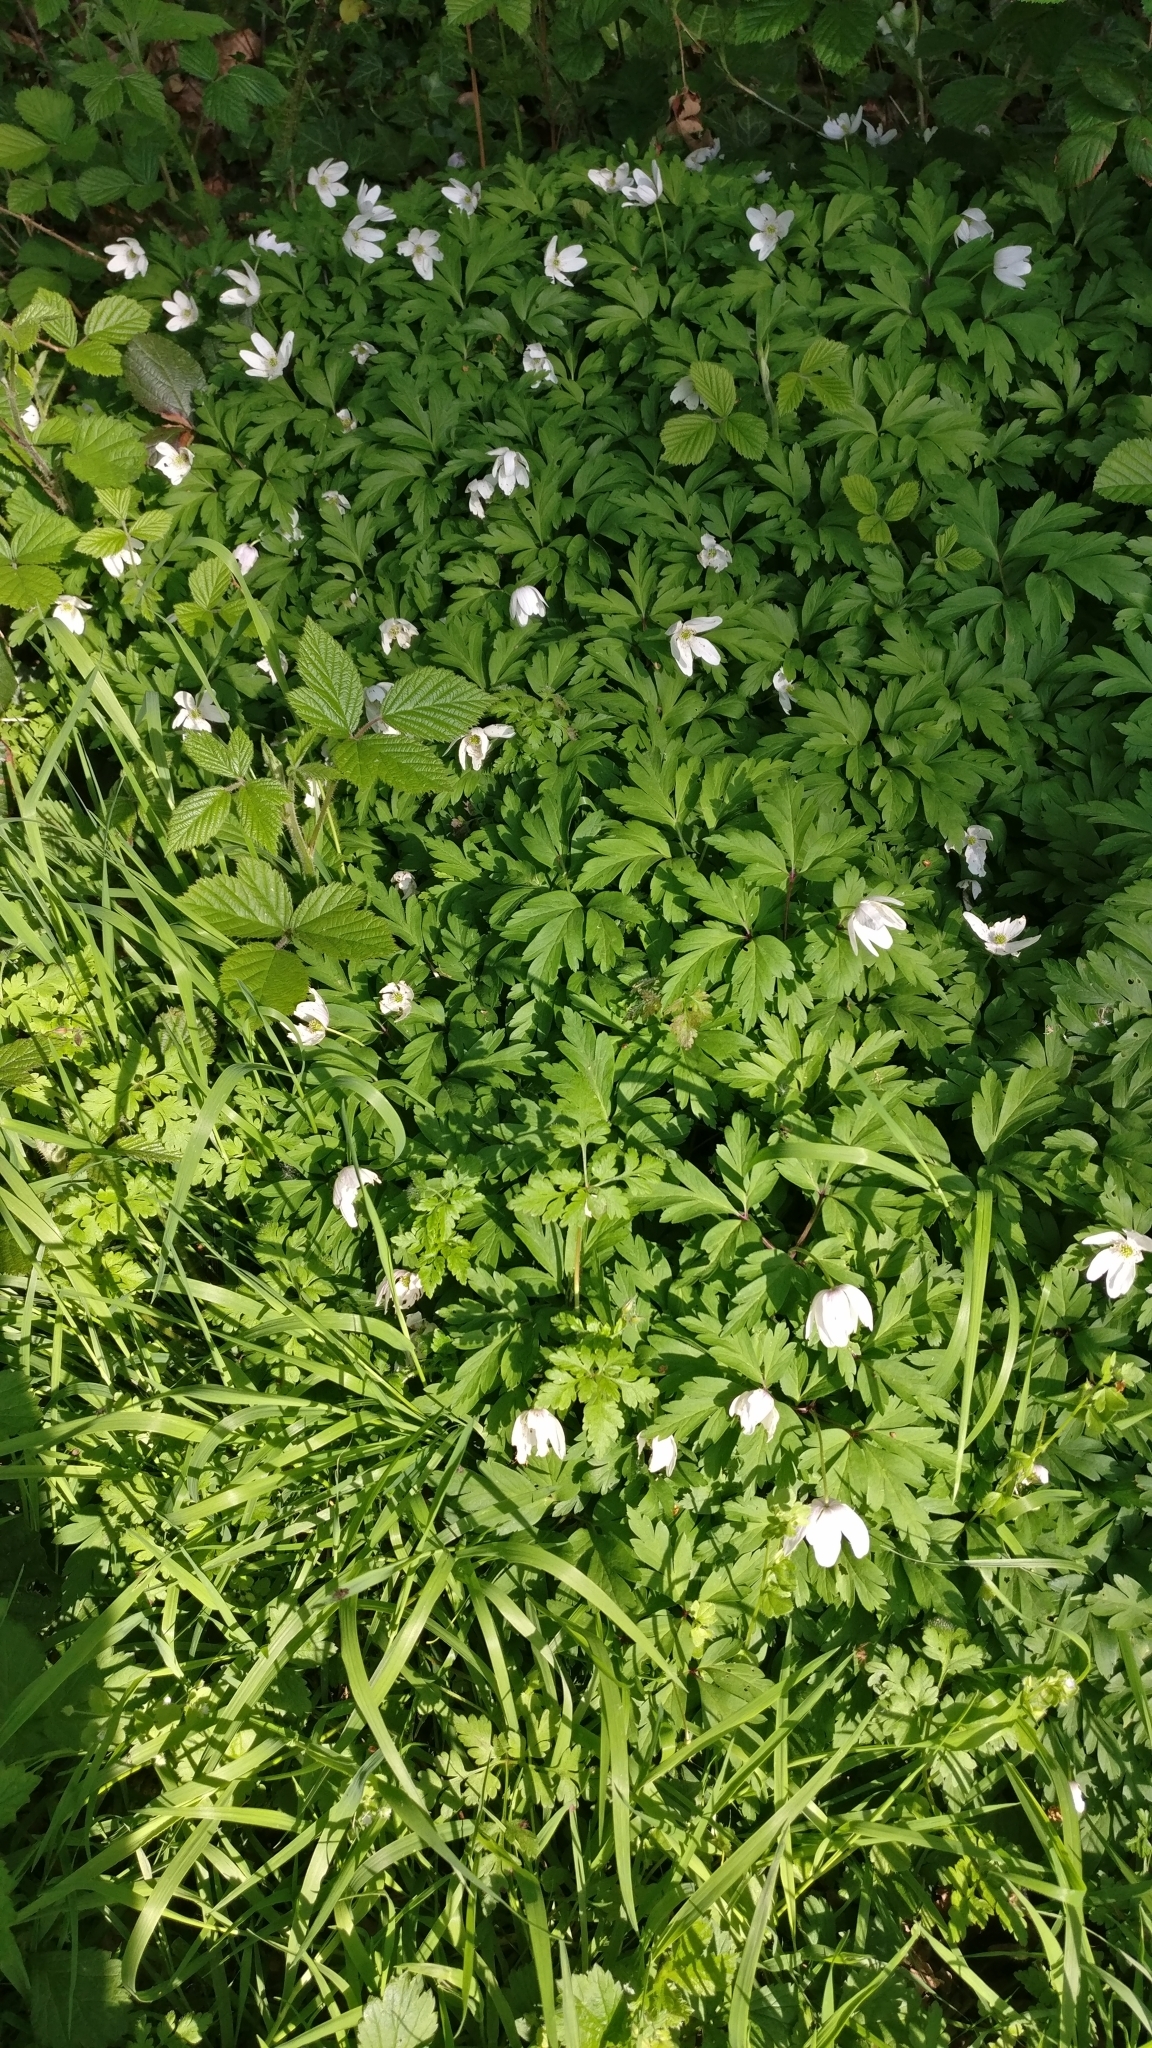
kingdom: Plantae
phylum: Tracheophyta
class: Magnoliopsida
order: Ranunculales
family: Ranunculaceae
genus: Anemone
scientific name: Anemone nemorosa
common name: Wood anemone
